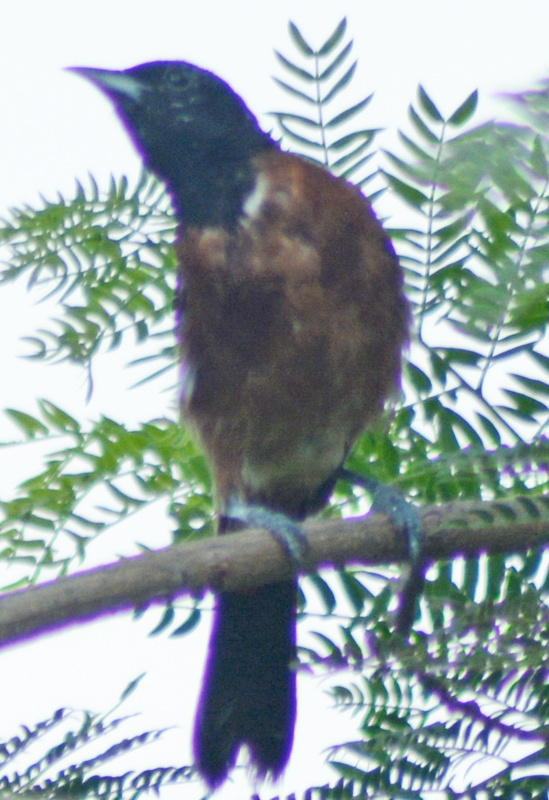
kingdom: Animalia
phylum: Chordata
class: Aves
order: Passeriformes
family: Icteridae
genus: Icterus
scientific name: Icterus spurius
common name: Orchard oriole
